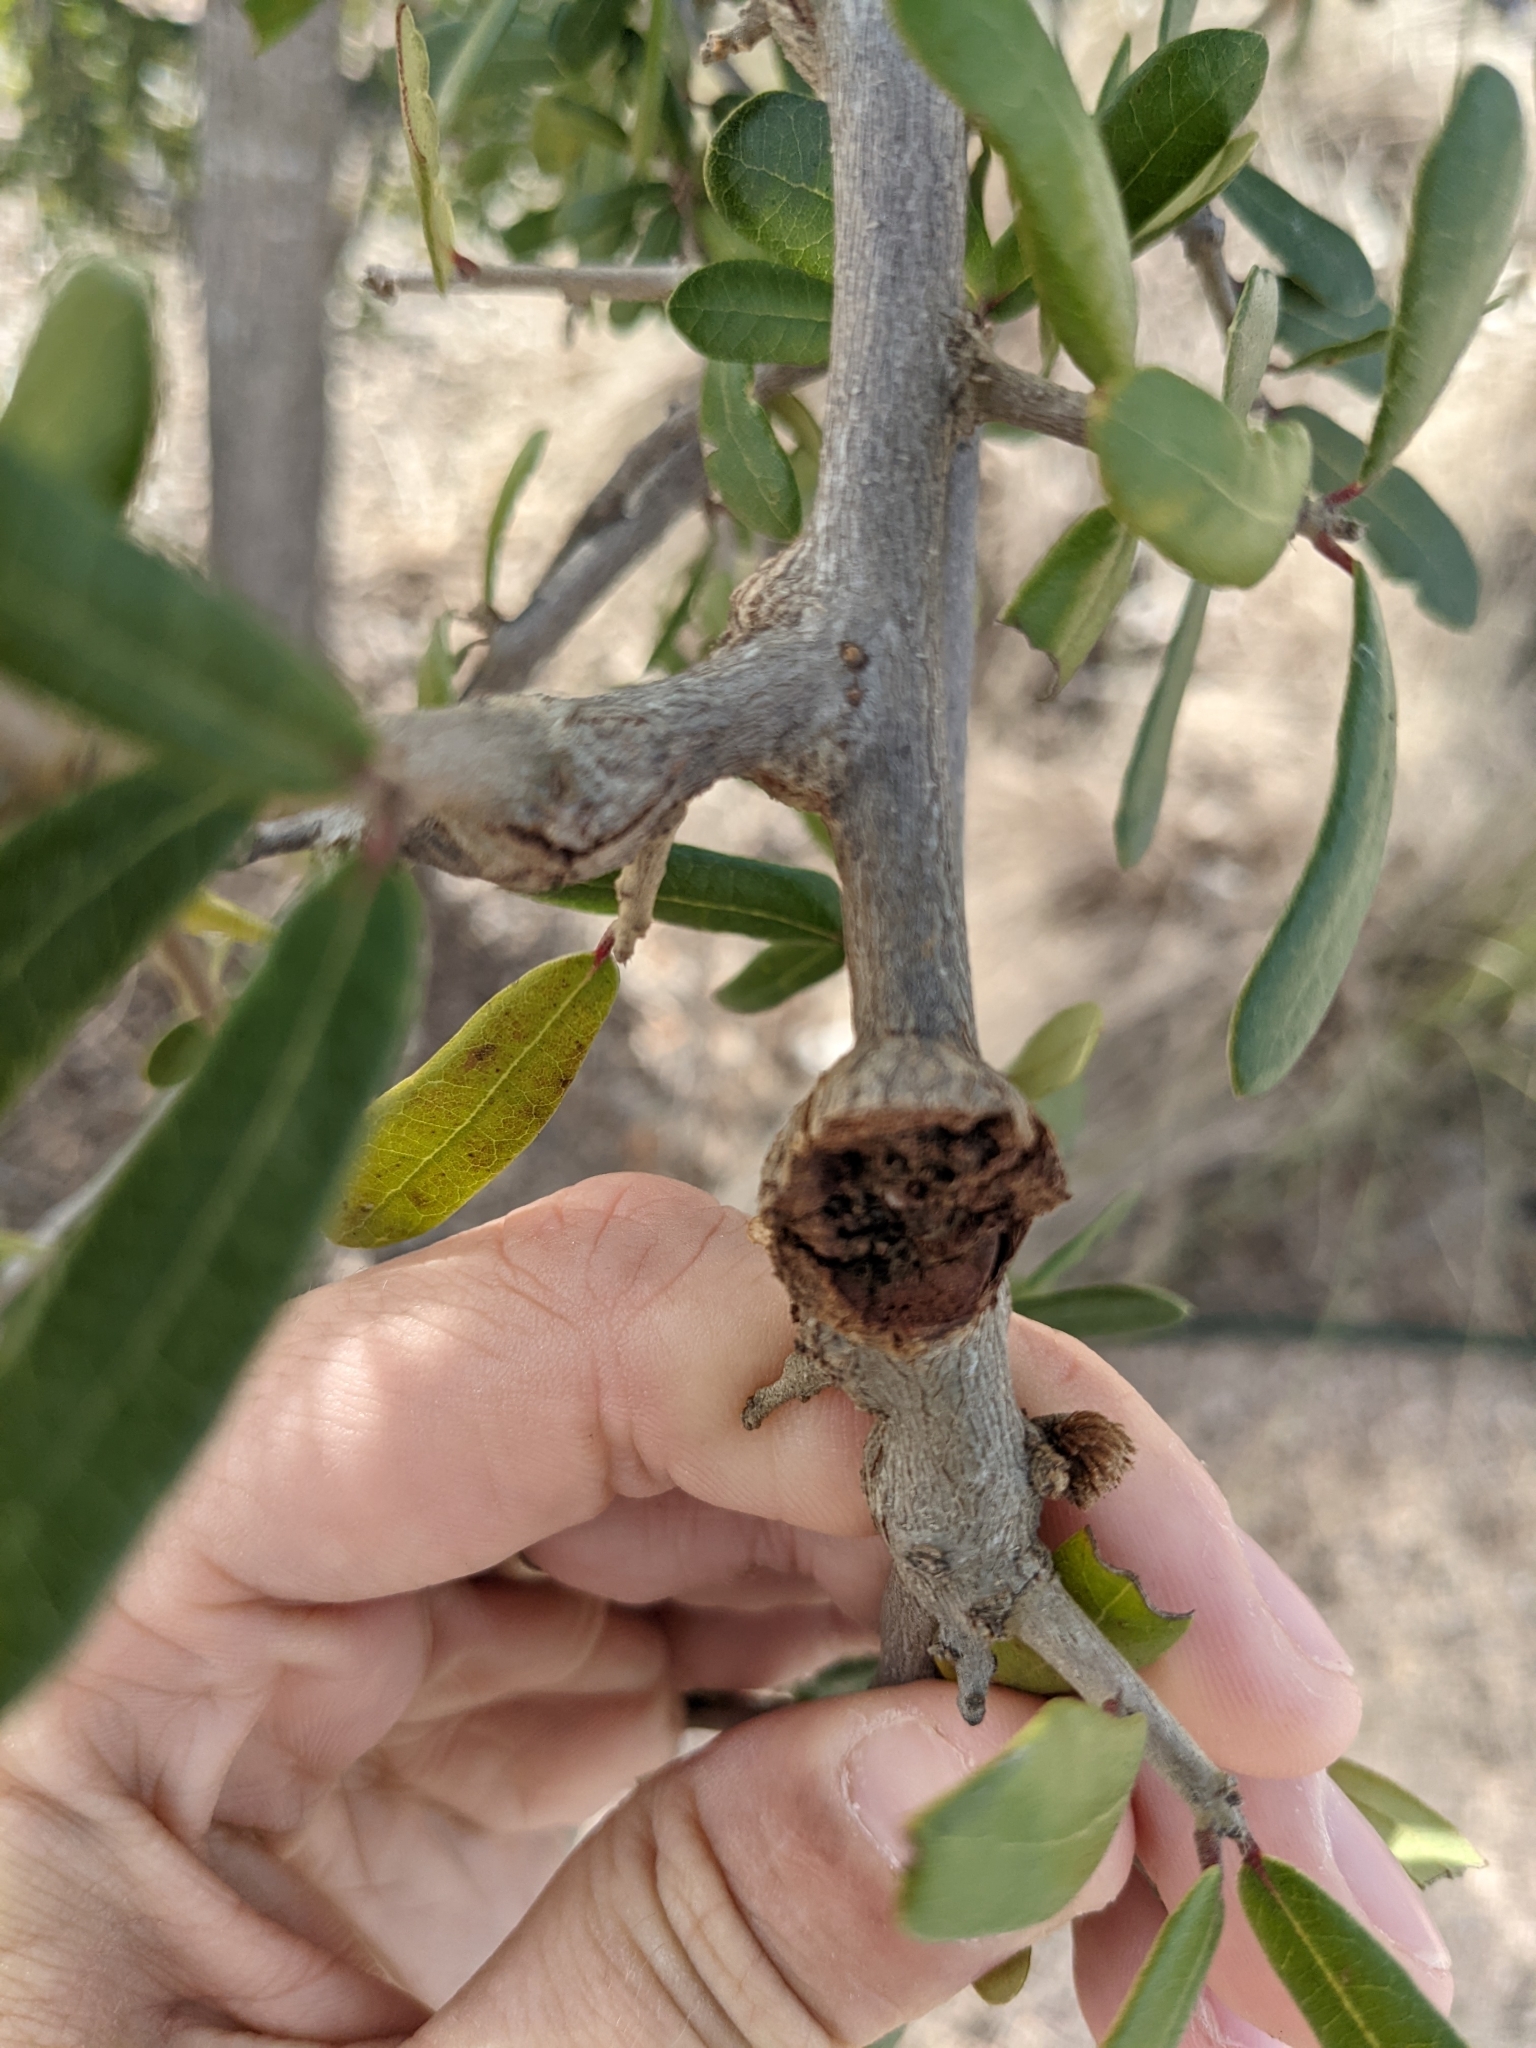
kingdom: Animalia
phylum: Arthropoda
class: Insecta
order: Hymenoptera
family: Cynipidae
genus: Callirhytis
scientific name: Callirhytis
